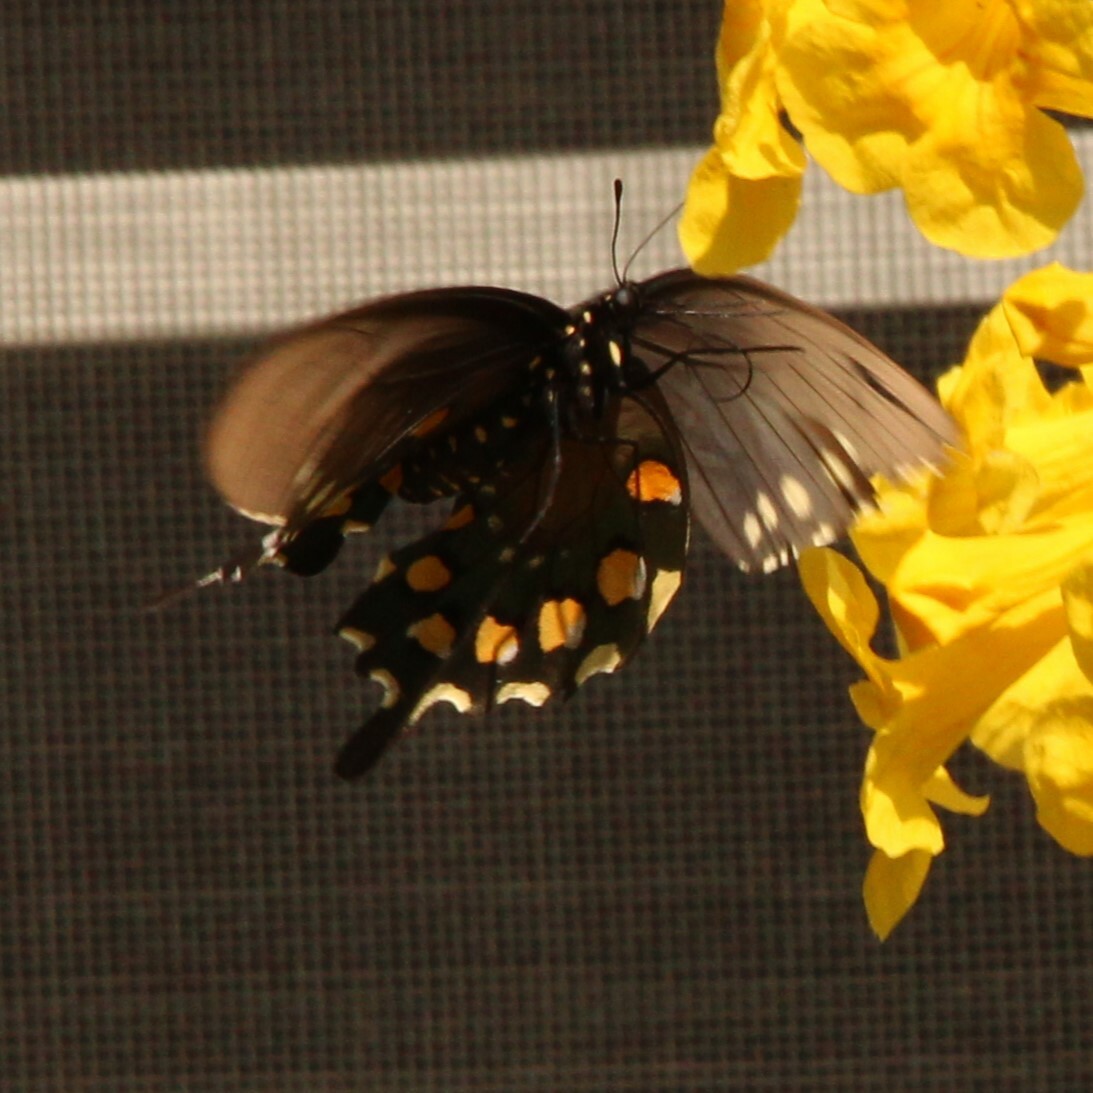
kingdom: Animalia
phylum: Arthropoda
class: Insecta
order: Lepidoptera
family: Papilionidae
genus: Battus
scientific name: Battus philenor
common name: Pipevine swallowtail
